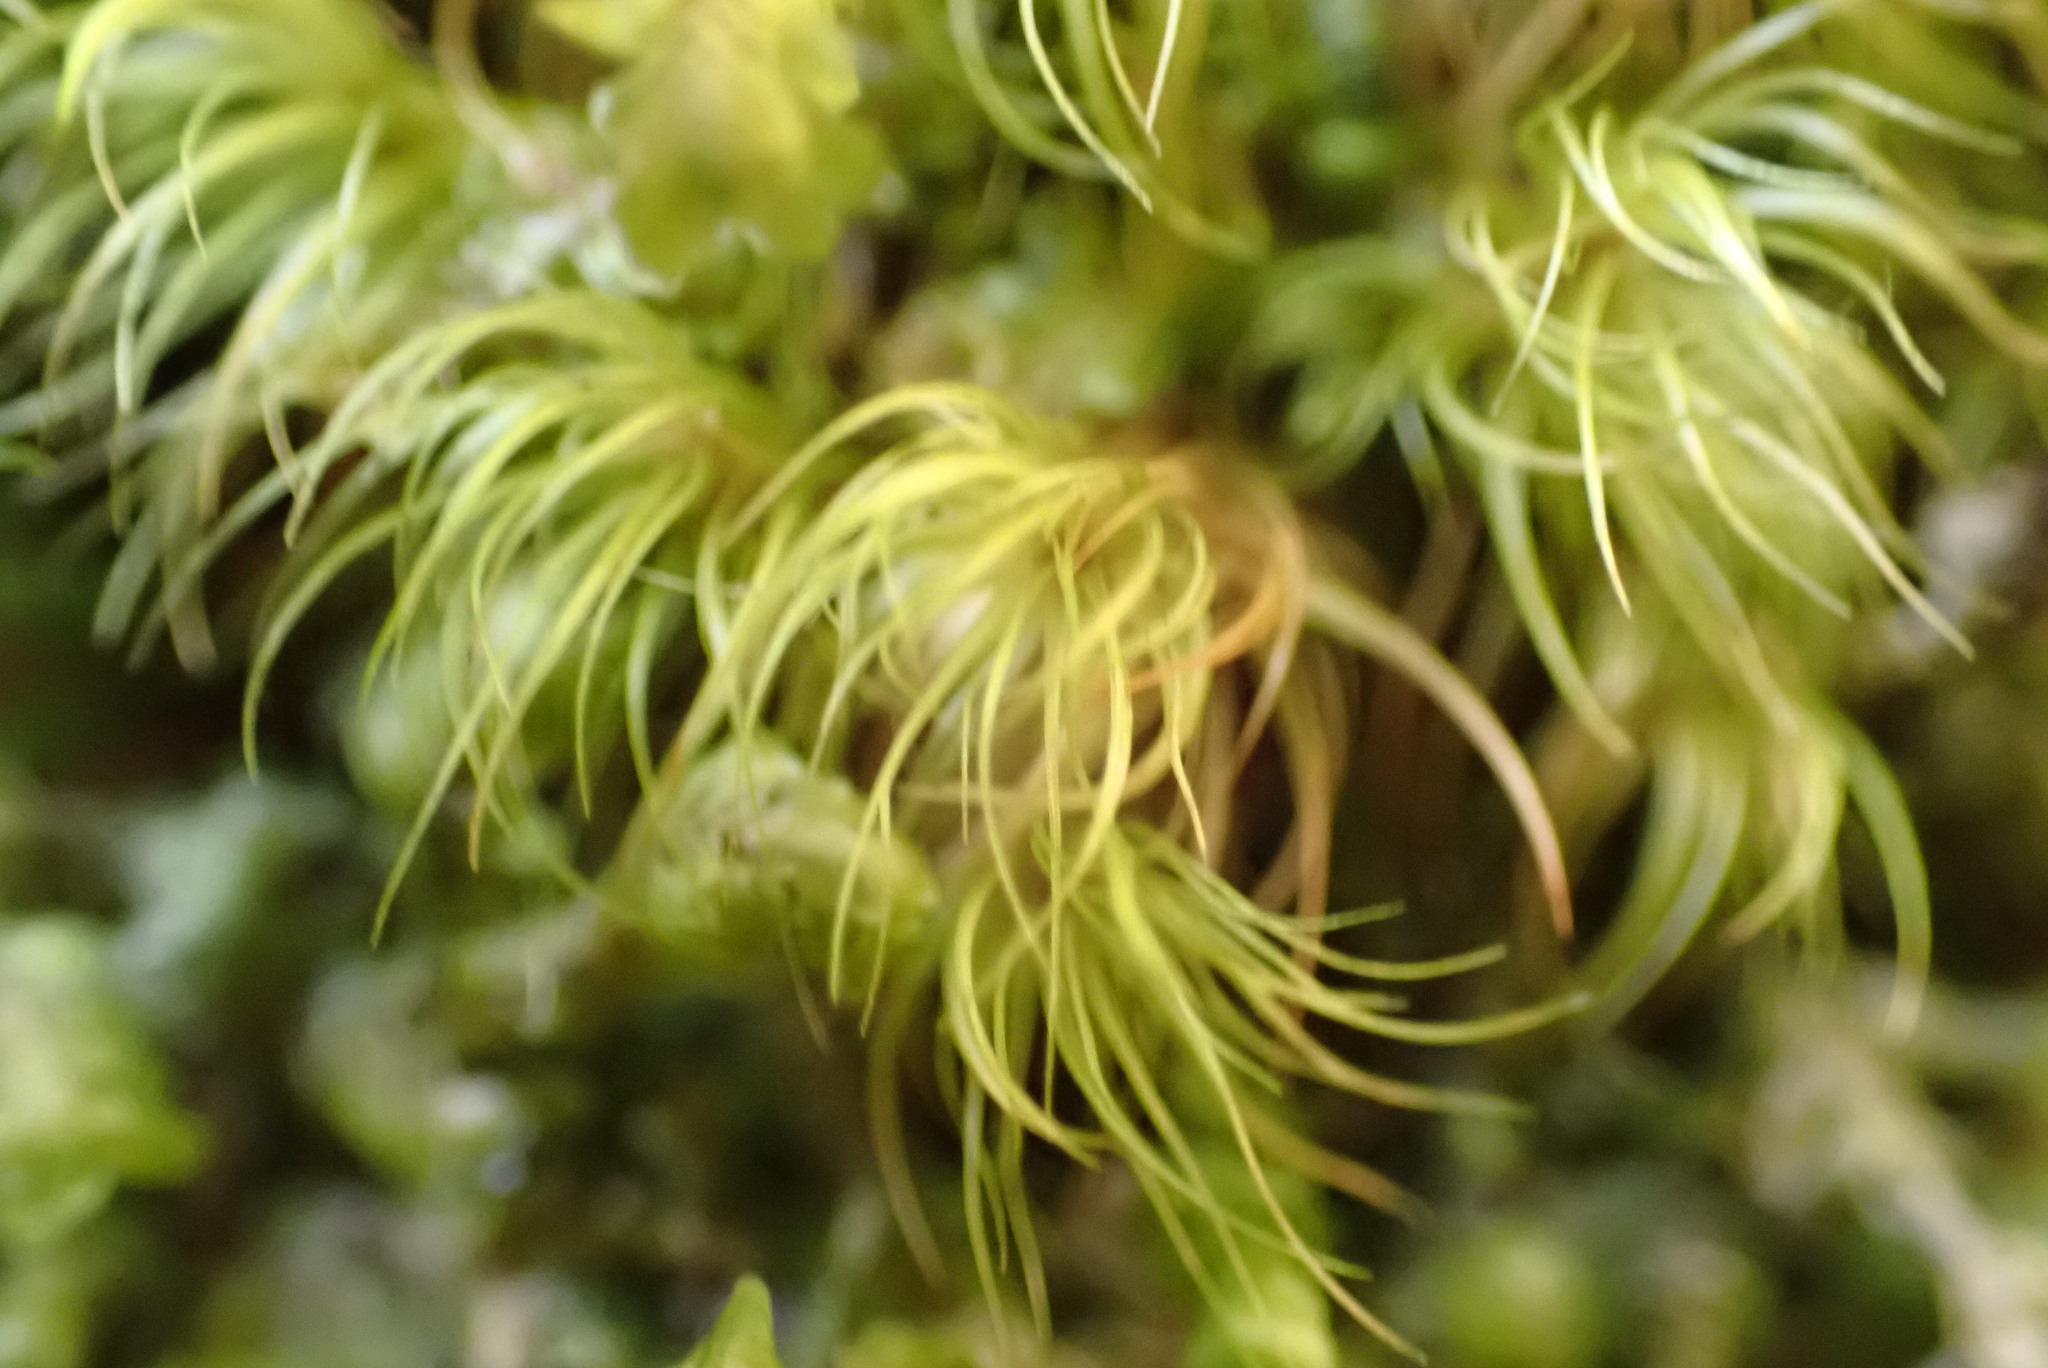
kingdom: Plantae
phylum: Bryophyta
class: Bryopsida
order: Dicranales
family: Dicranaceae
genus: Dicranum
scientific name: Dicranum fuscescens
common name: Curly heron's-bill moss
